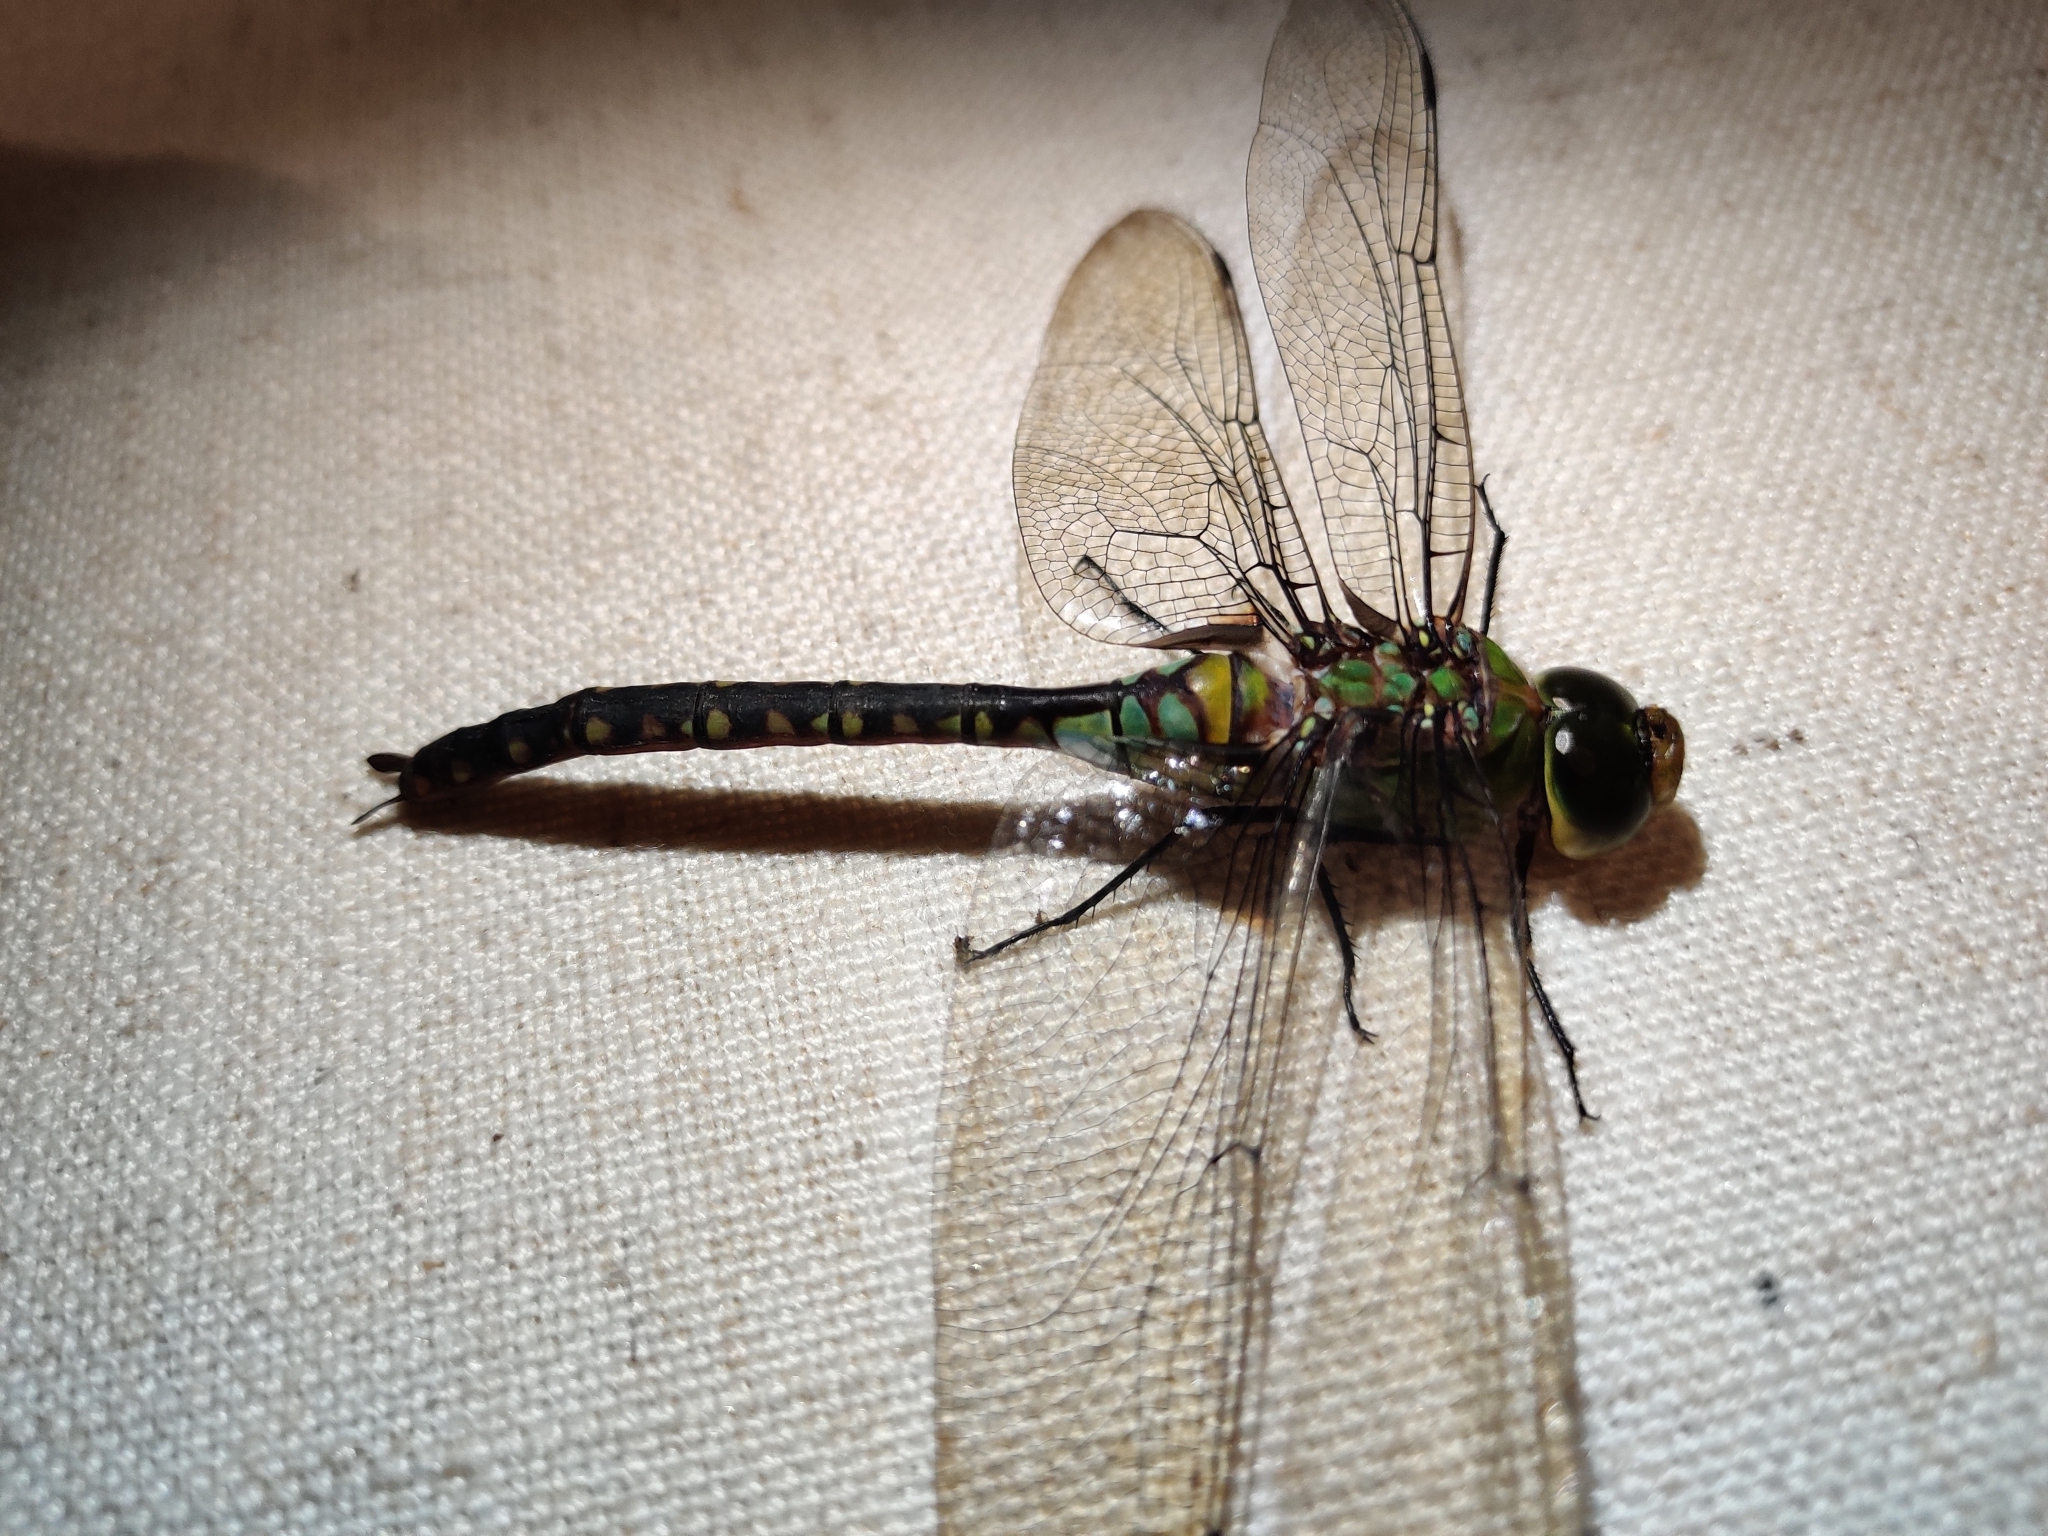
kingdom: Animalia
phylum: Arthropoda
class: Insecta
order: Odonata
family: Aeshnidae
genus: Anax
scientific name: Anax guttatus
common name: Emperor
